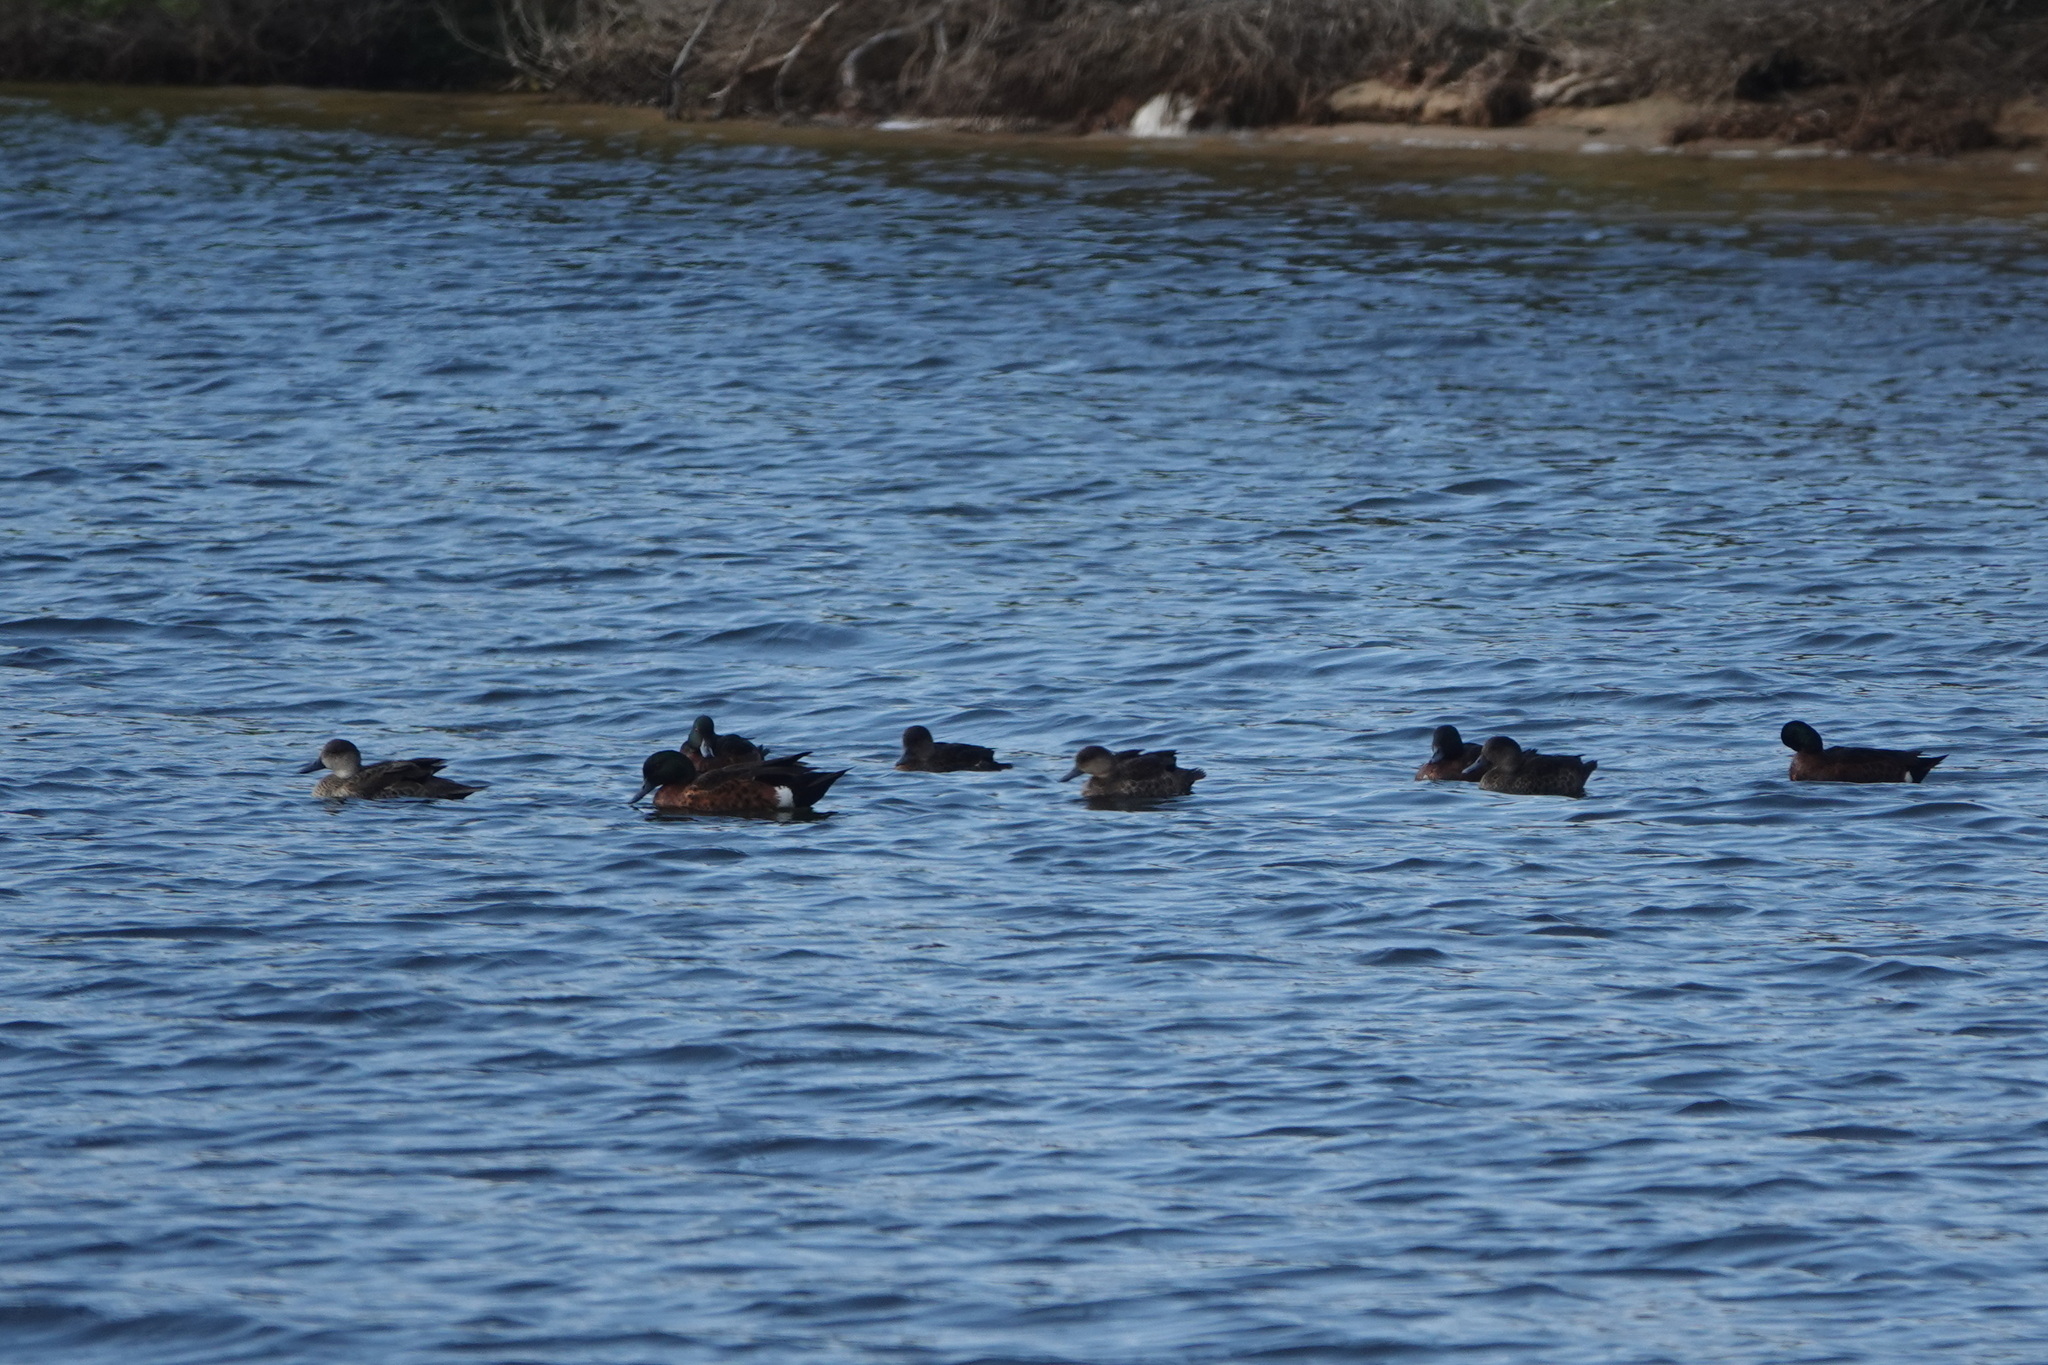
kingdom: Animalia
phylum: Chordata
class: Aves
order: Anseriformes
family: Anatidae
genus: Anas
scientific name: Anas castanea
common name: Chestnut teal
